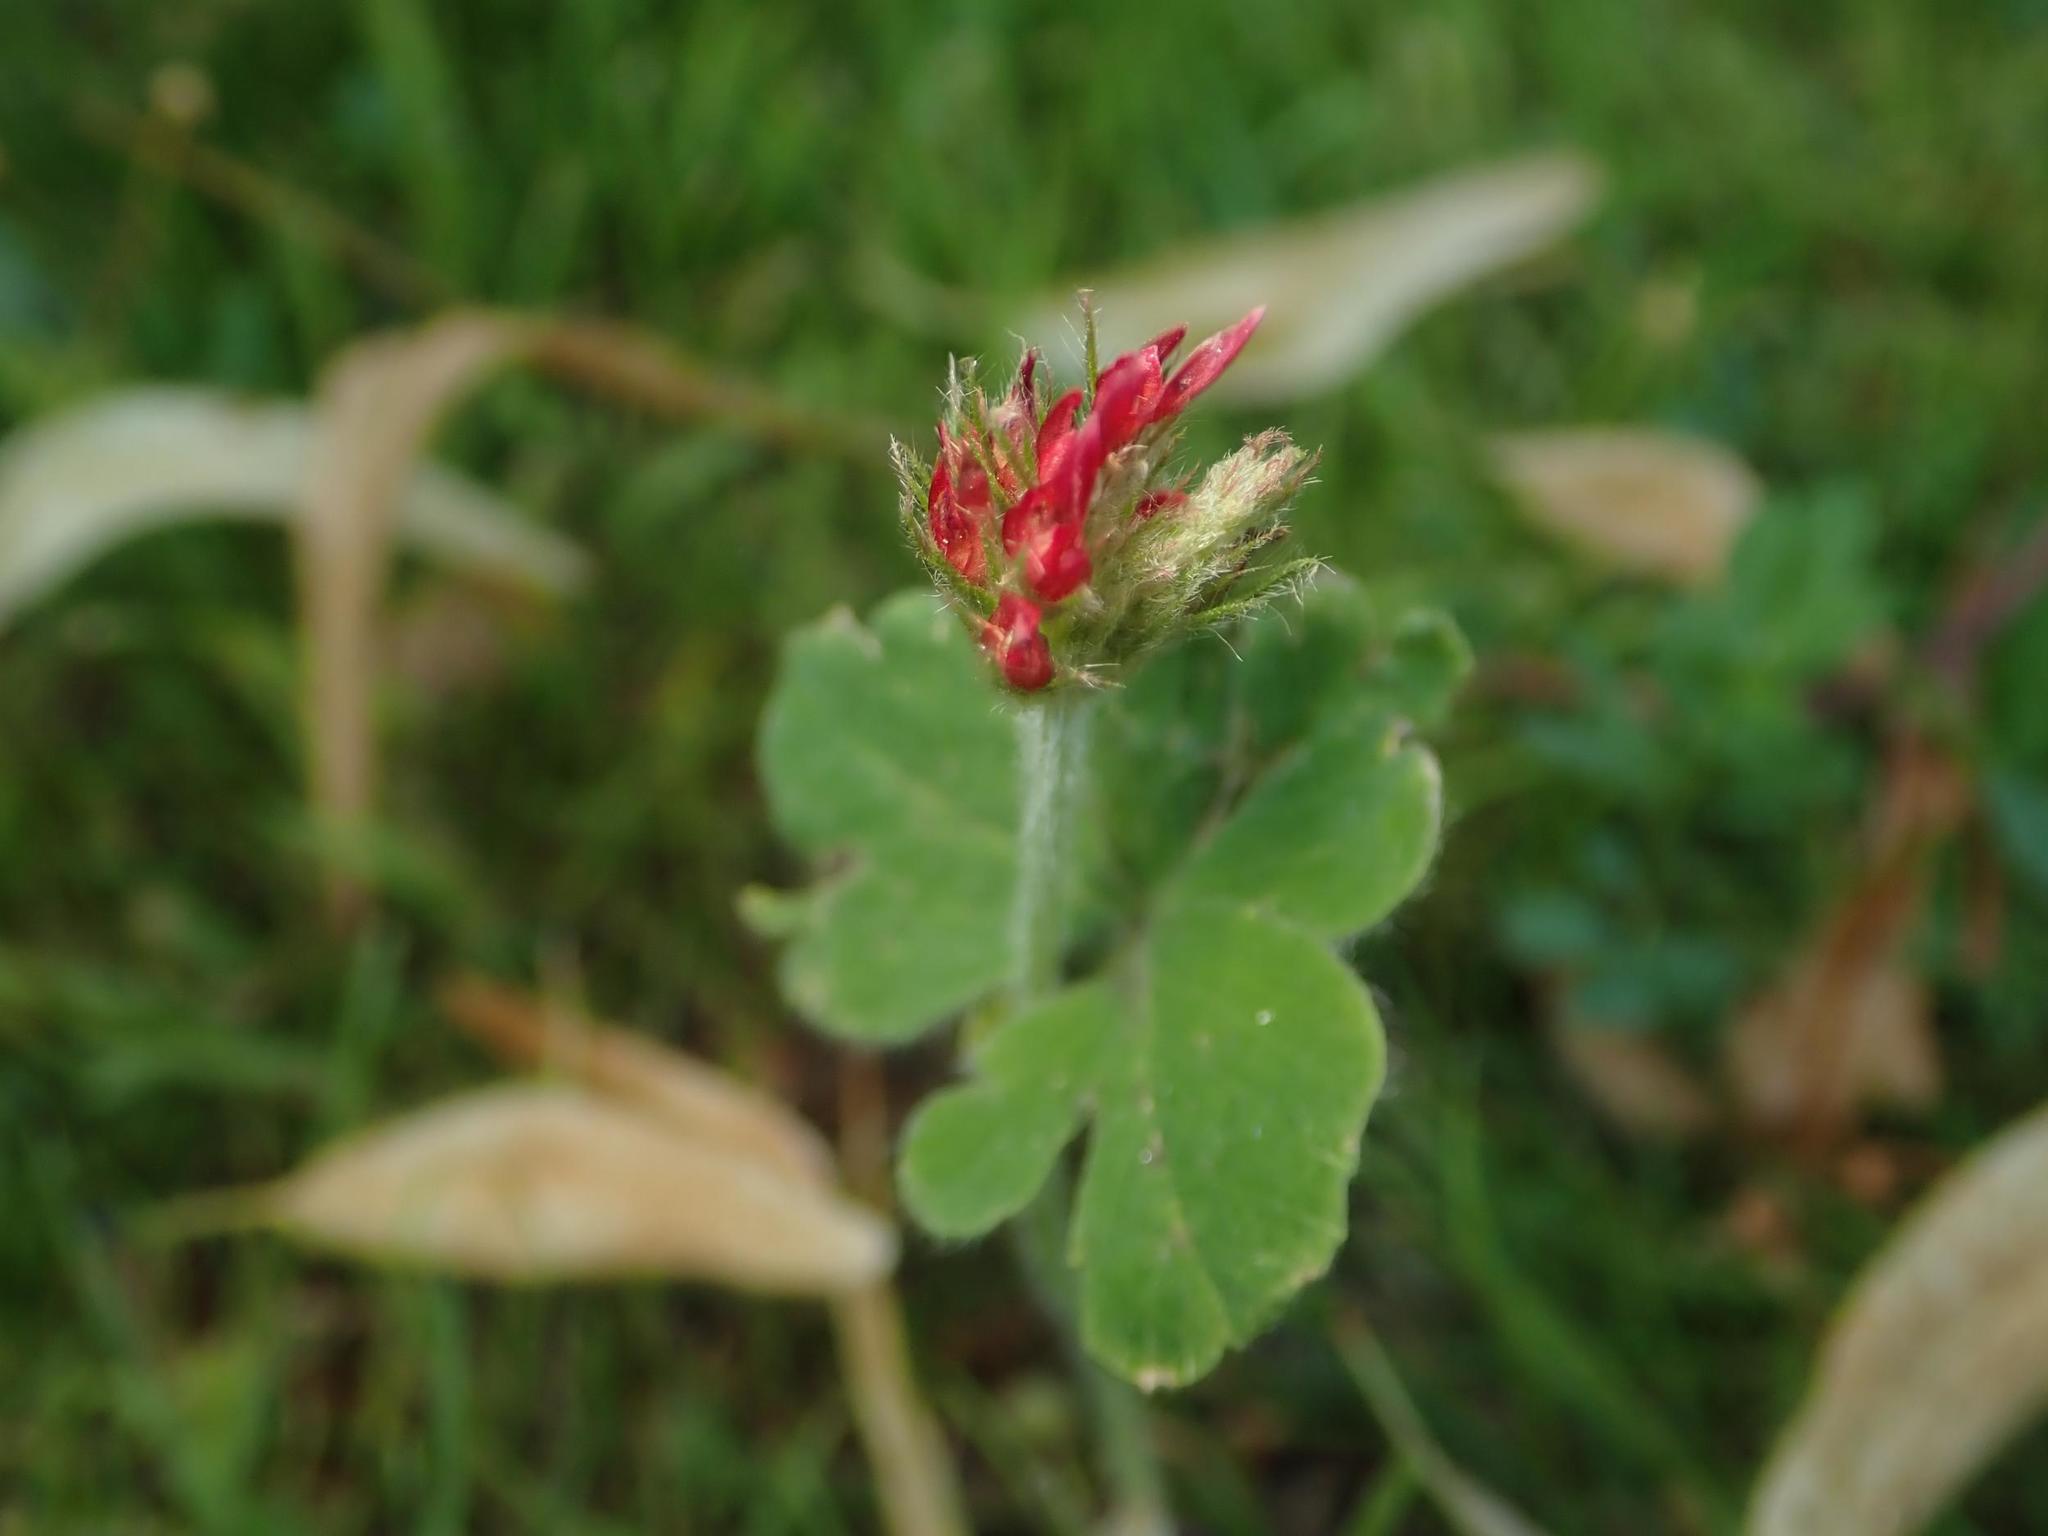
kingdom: Plantae
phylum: Tracheophyta
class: Magnoliopsida
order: Fabales
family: Fabaceae
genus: Trifolium
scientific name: Trifolium incarnatum
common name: Crimson clover
